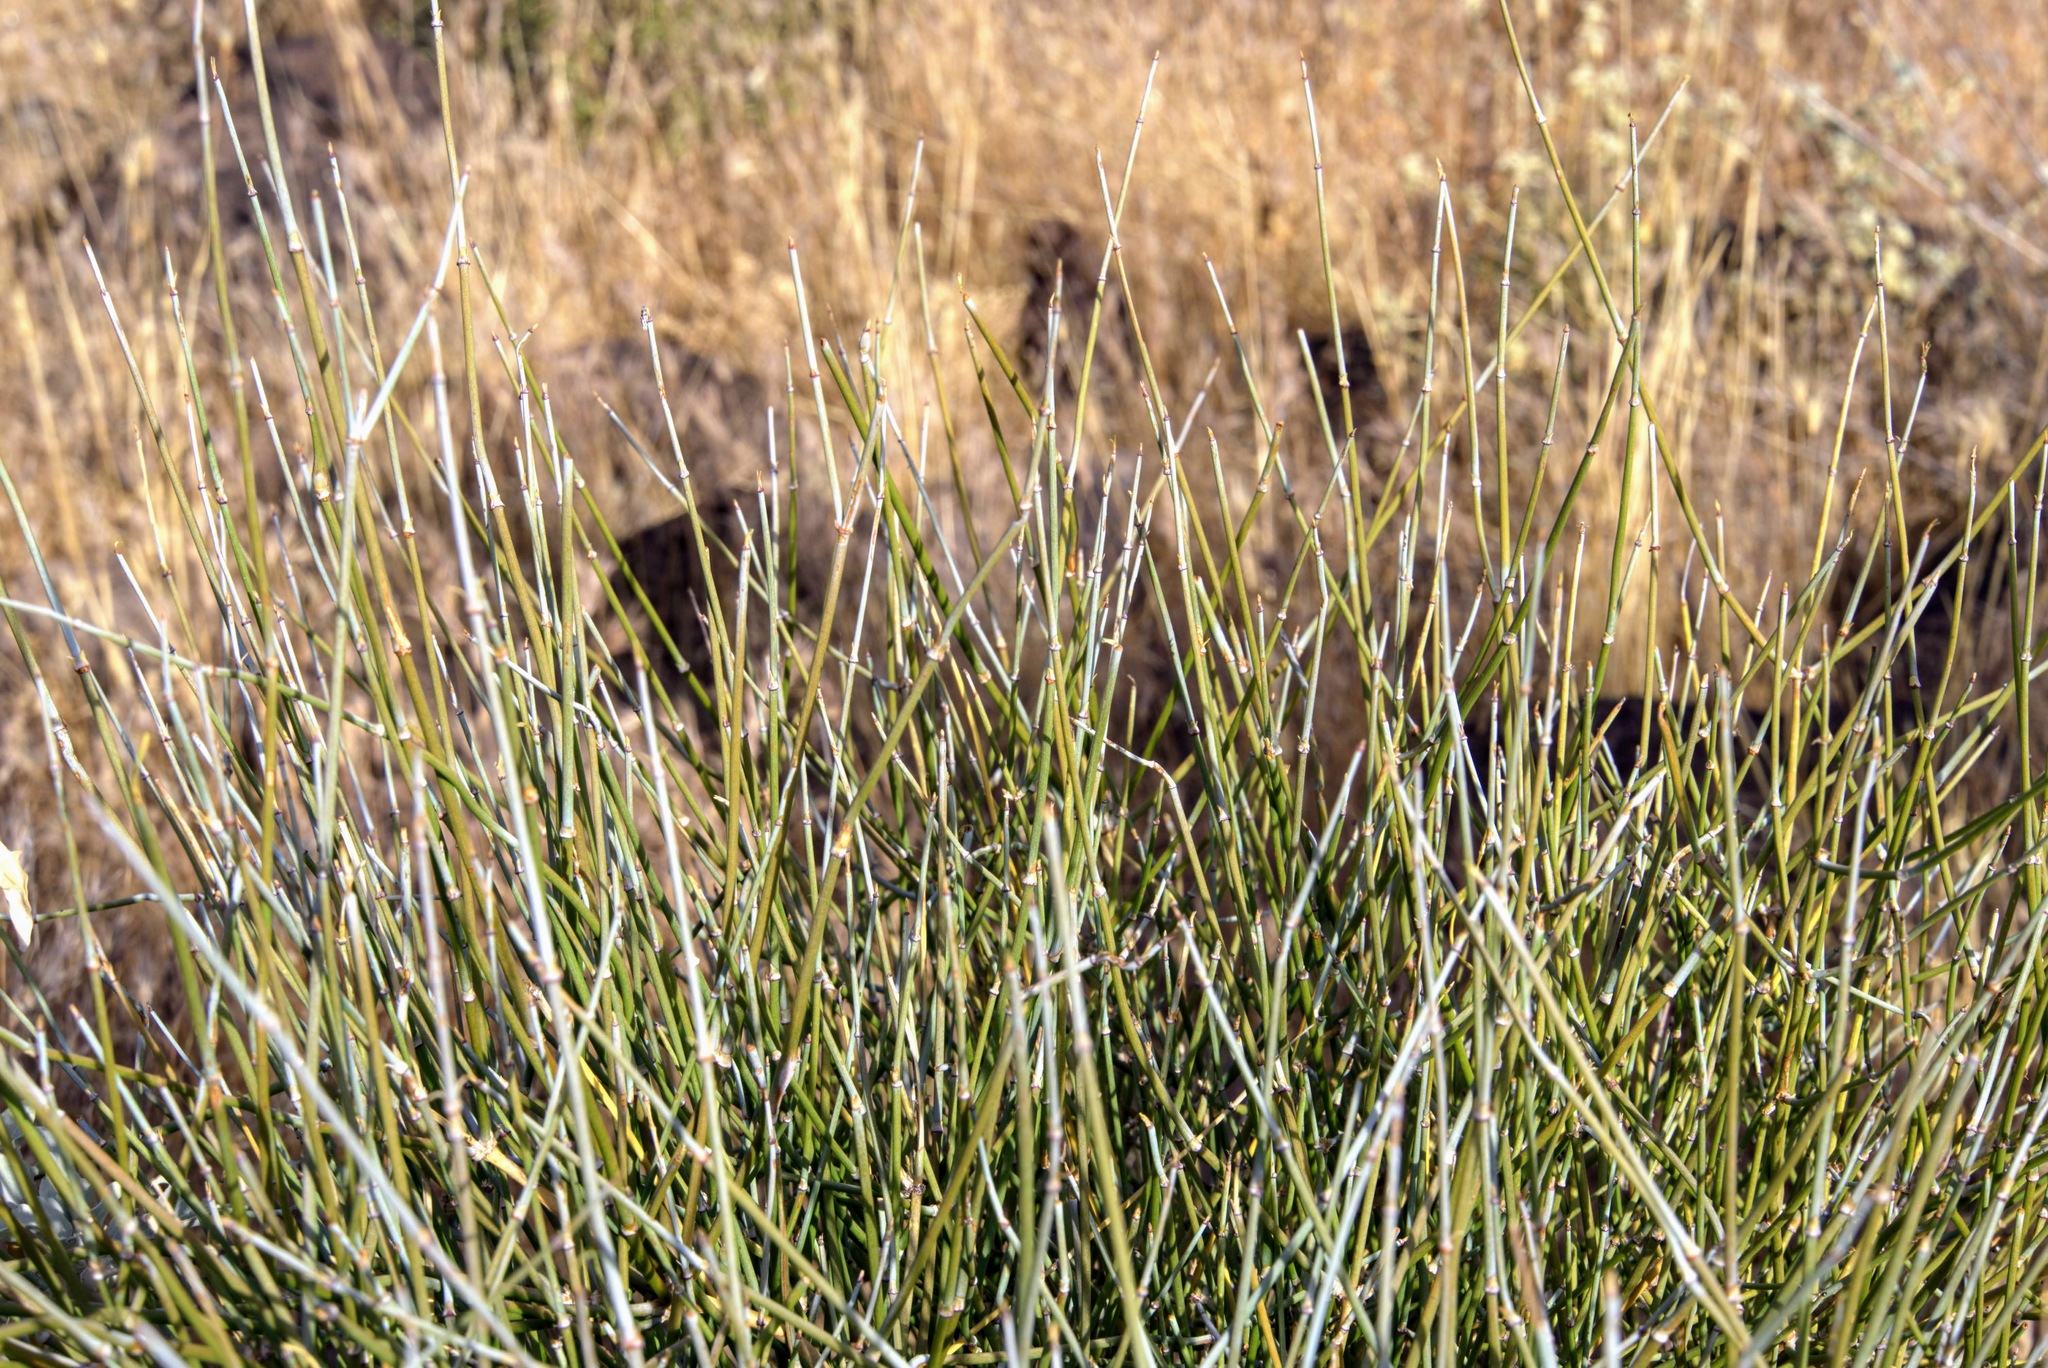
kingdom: Plantae
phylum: Tracheophyta
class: Gnetopsida
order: Ephedrales
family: Ephedraceae
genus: Ephedra
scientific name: Ephedra
